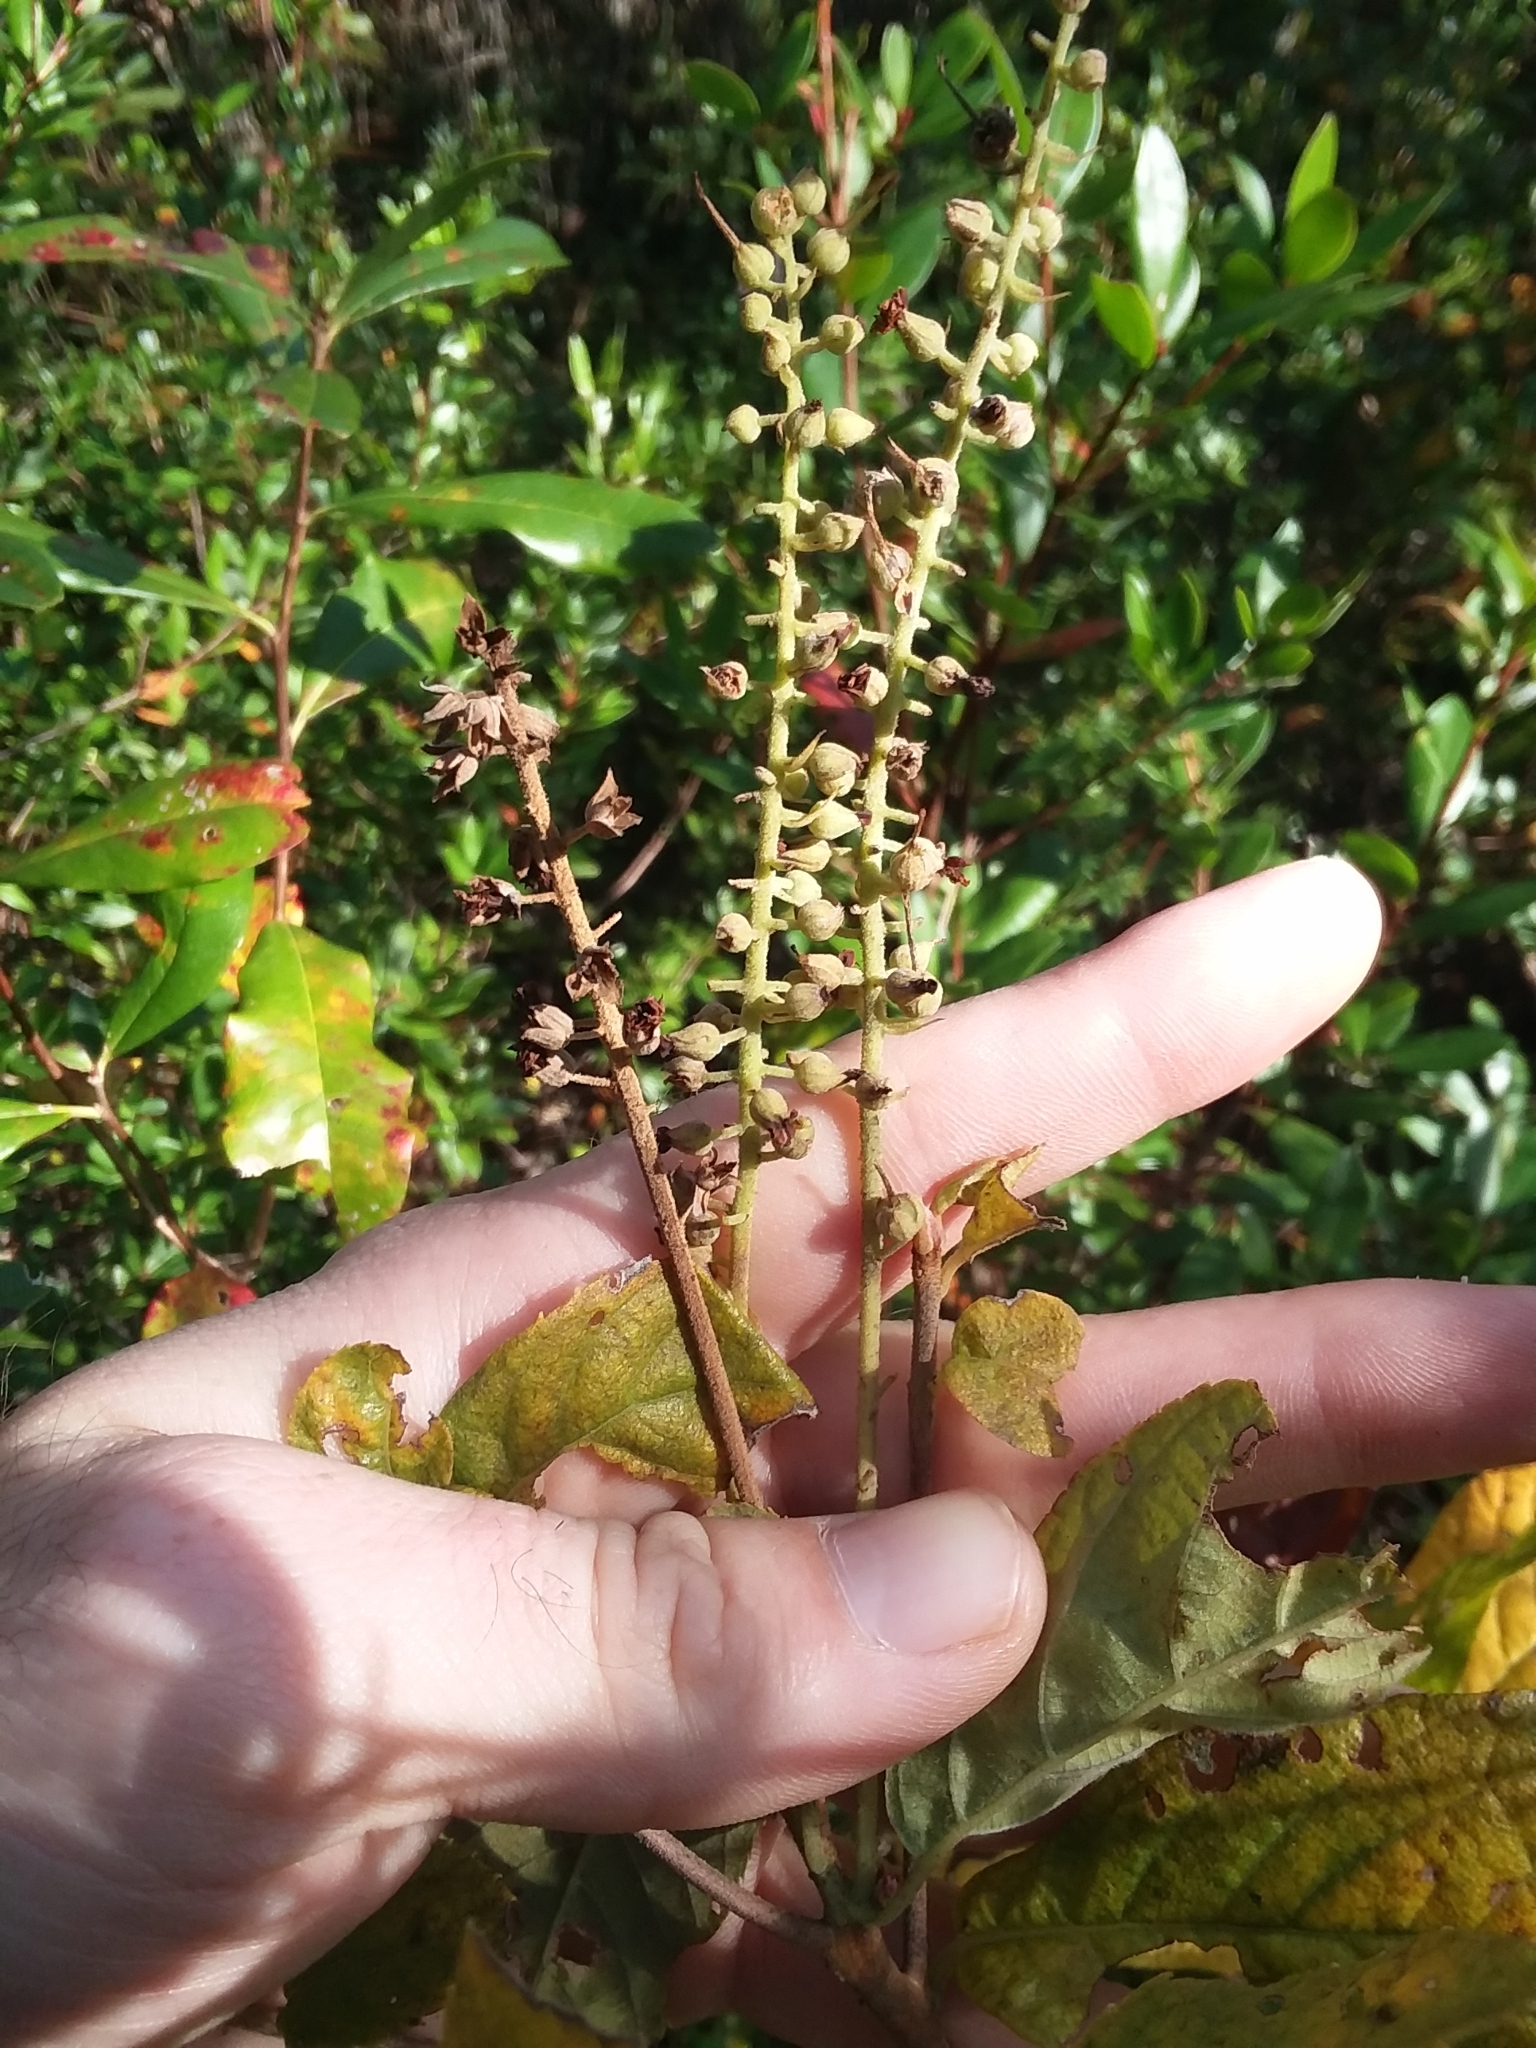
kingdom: Plantae
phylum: Tracheophyta
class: Magnoliopsida
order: Ericales
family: Clethraceae
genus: Clethra
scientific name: Clethra tomentosa
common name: Downy sweet pepperbush
